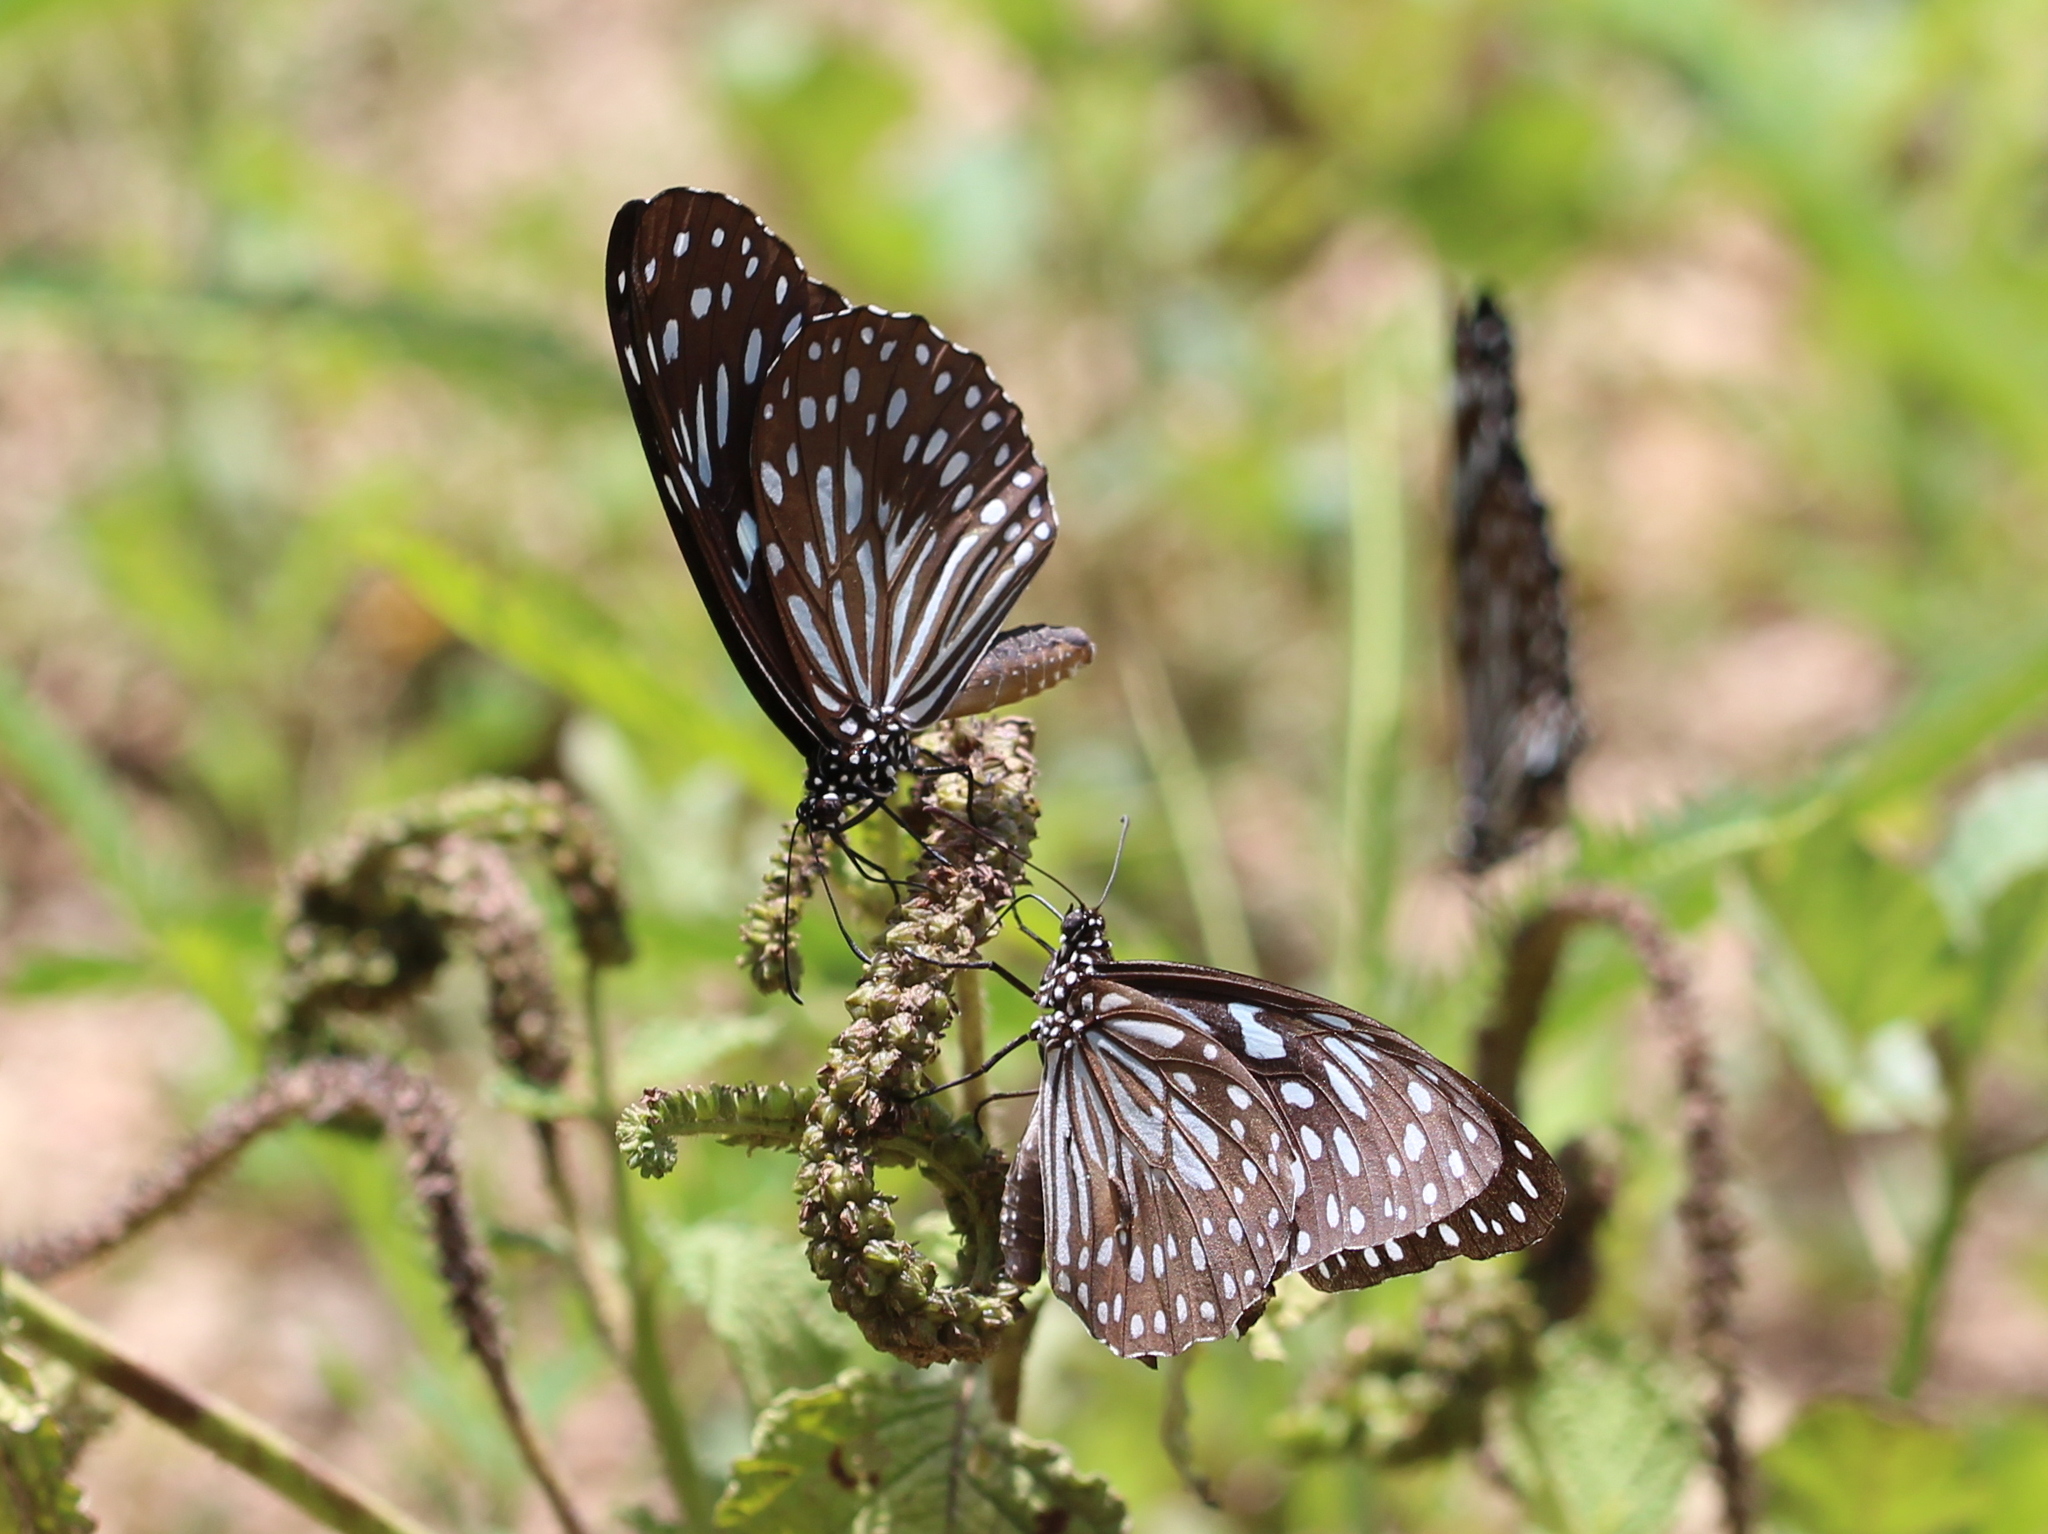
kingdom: Animalia
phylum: Arthropoda
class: Insecta
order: Lepidoptera
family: Nymphalidae
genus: Tirumala
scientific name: Tirumala septentrionis
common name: Dark blue tiger butterfly
